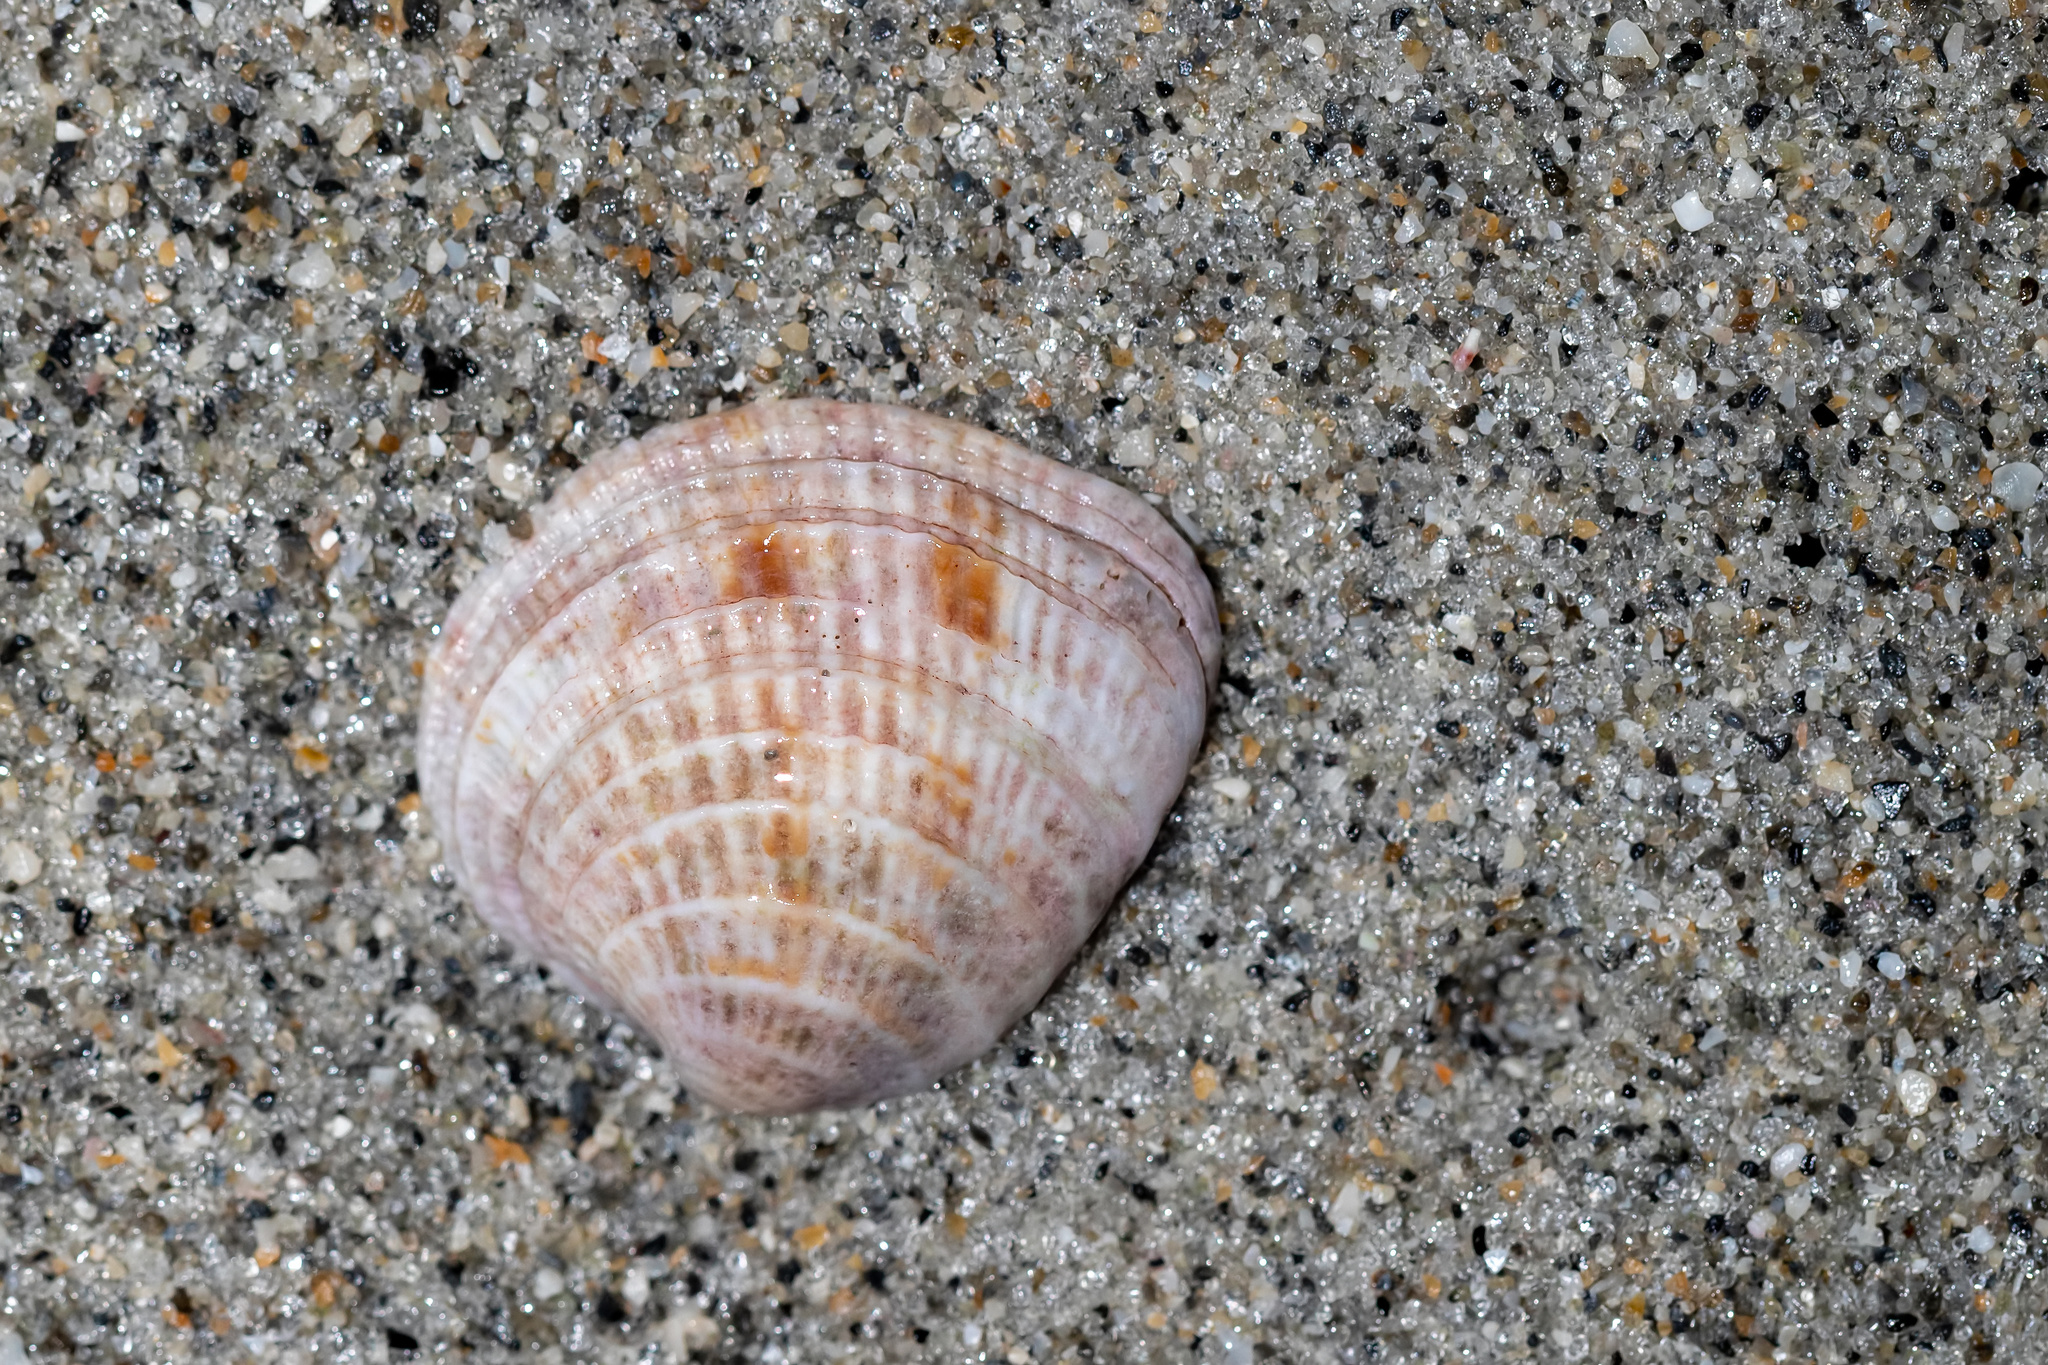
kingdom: Animalia
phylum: Mollusca
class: Bivalvia
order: Venerida
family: Veneridae
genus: Chione
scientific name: Chione elevata
